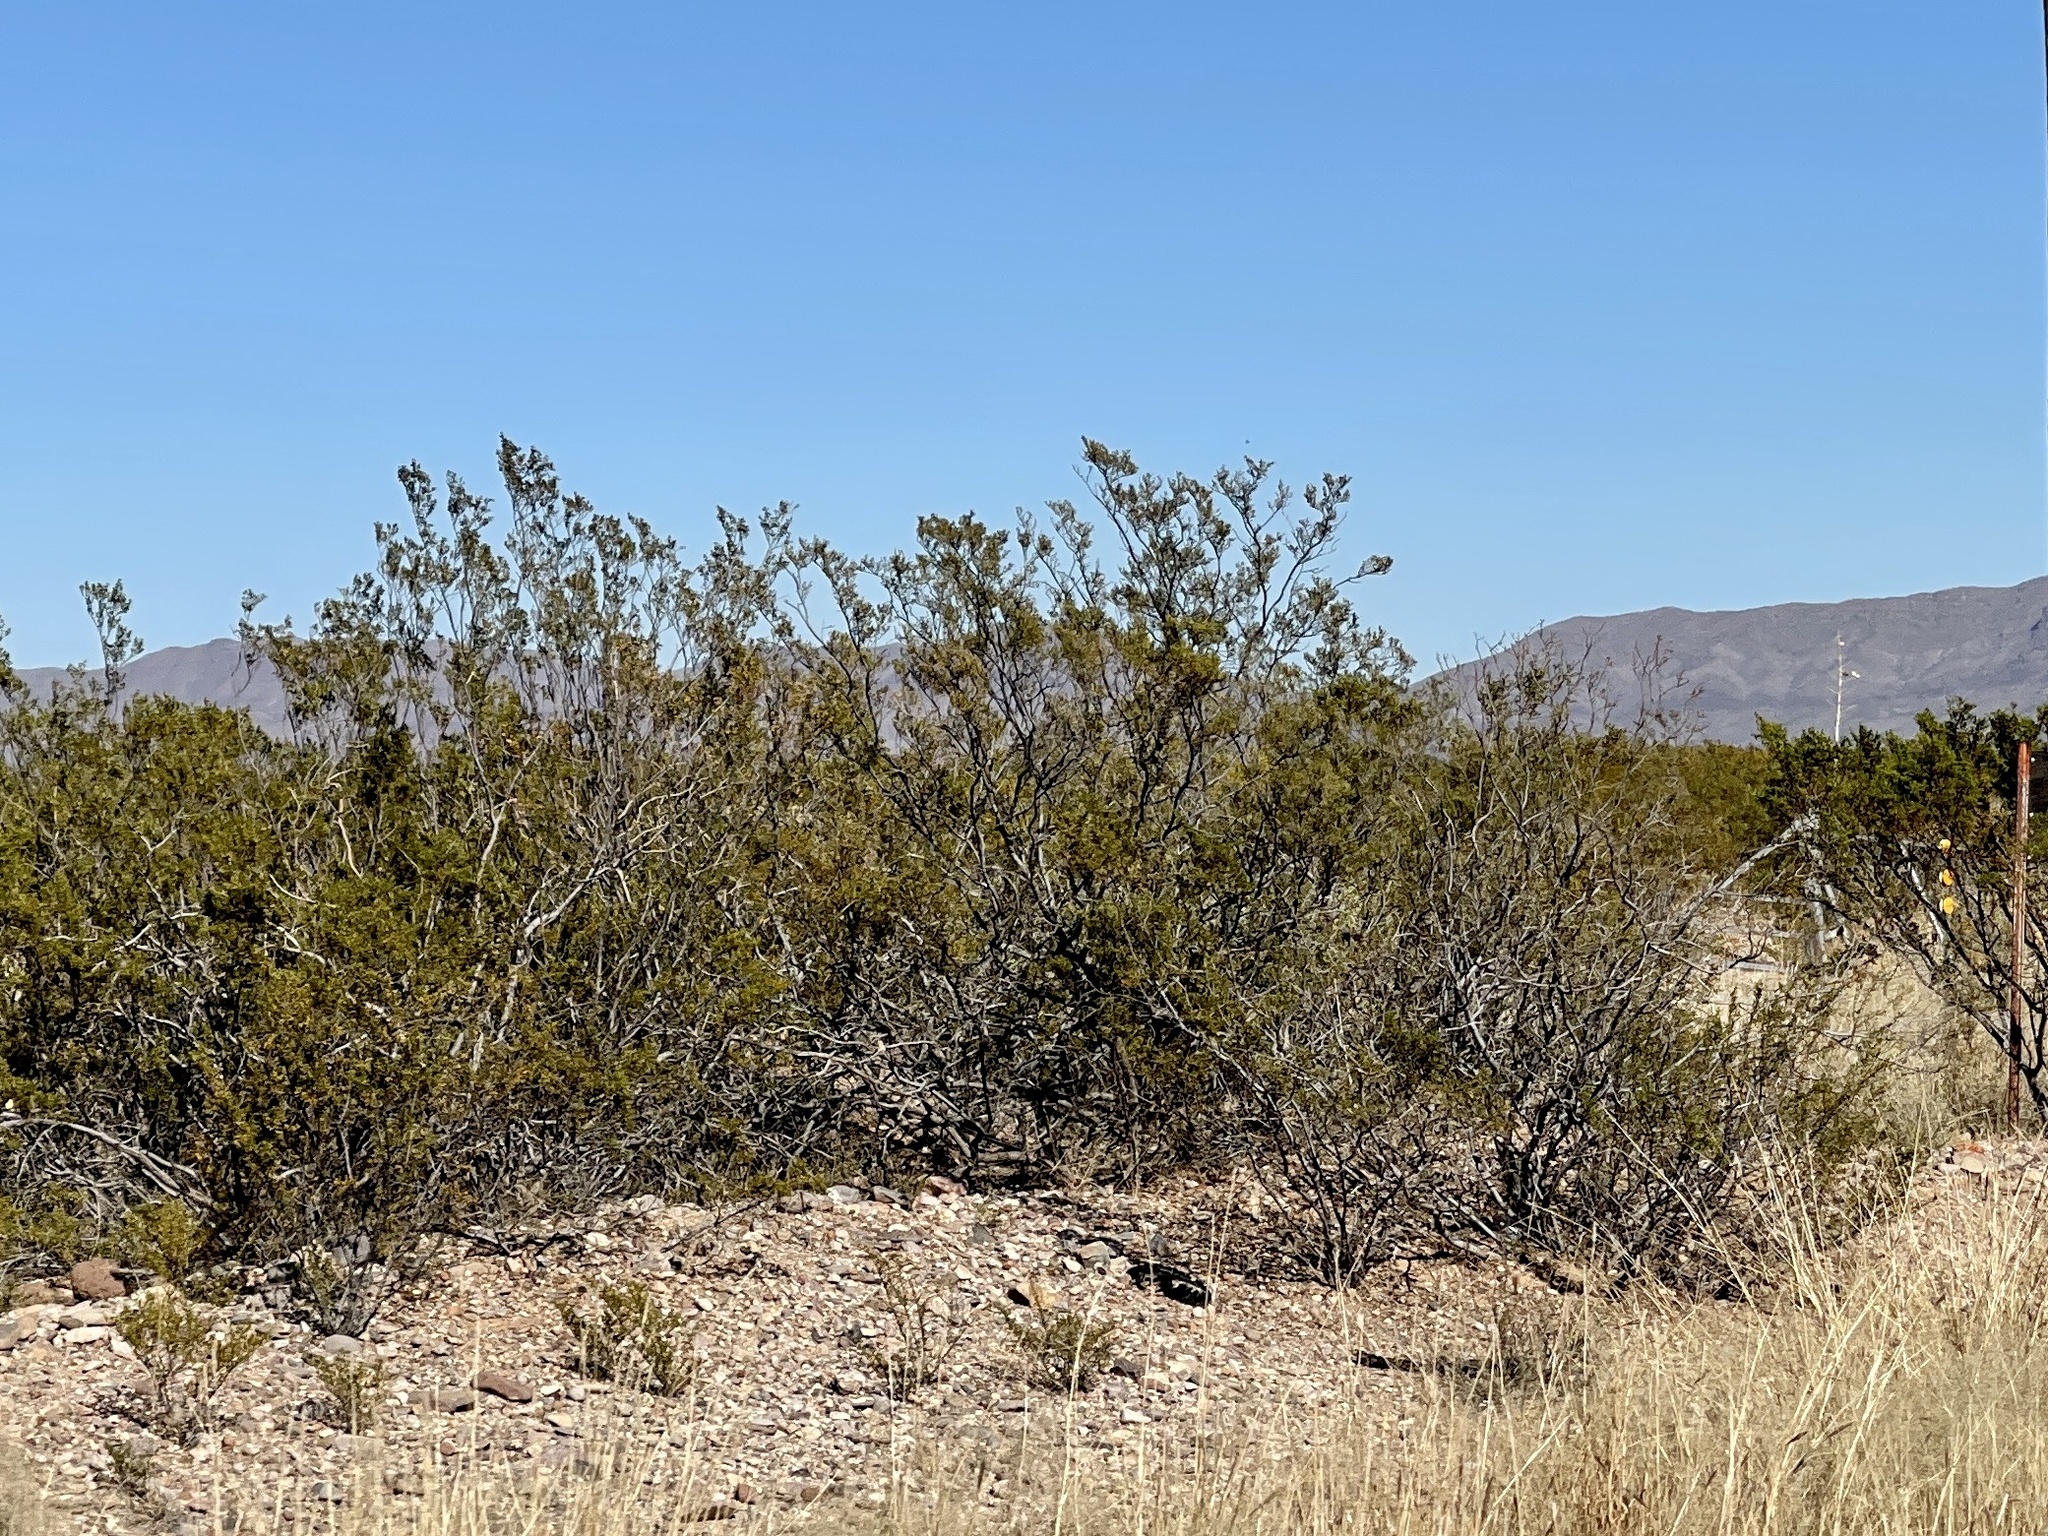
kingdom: Plantae
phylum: Tracheophyta
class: Magnoliopsida
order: Zygophyllales
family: Zygophyllaceae
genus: Larrea
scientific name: Larrea tridentata
